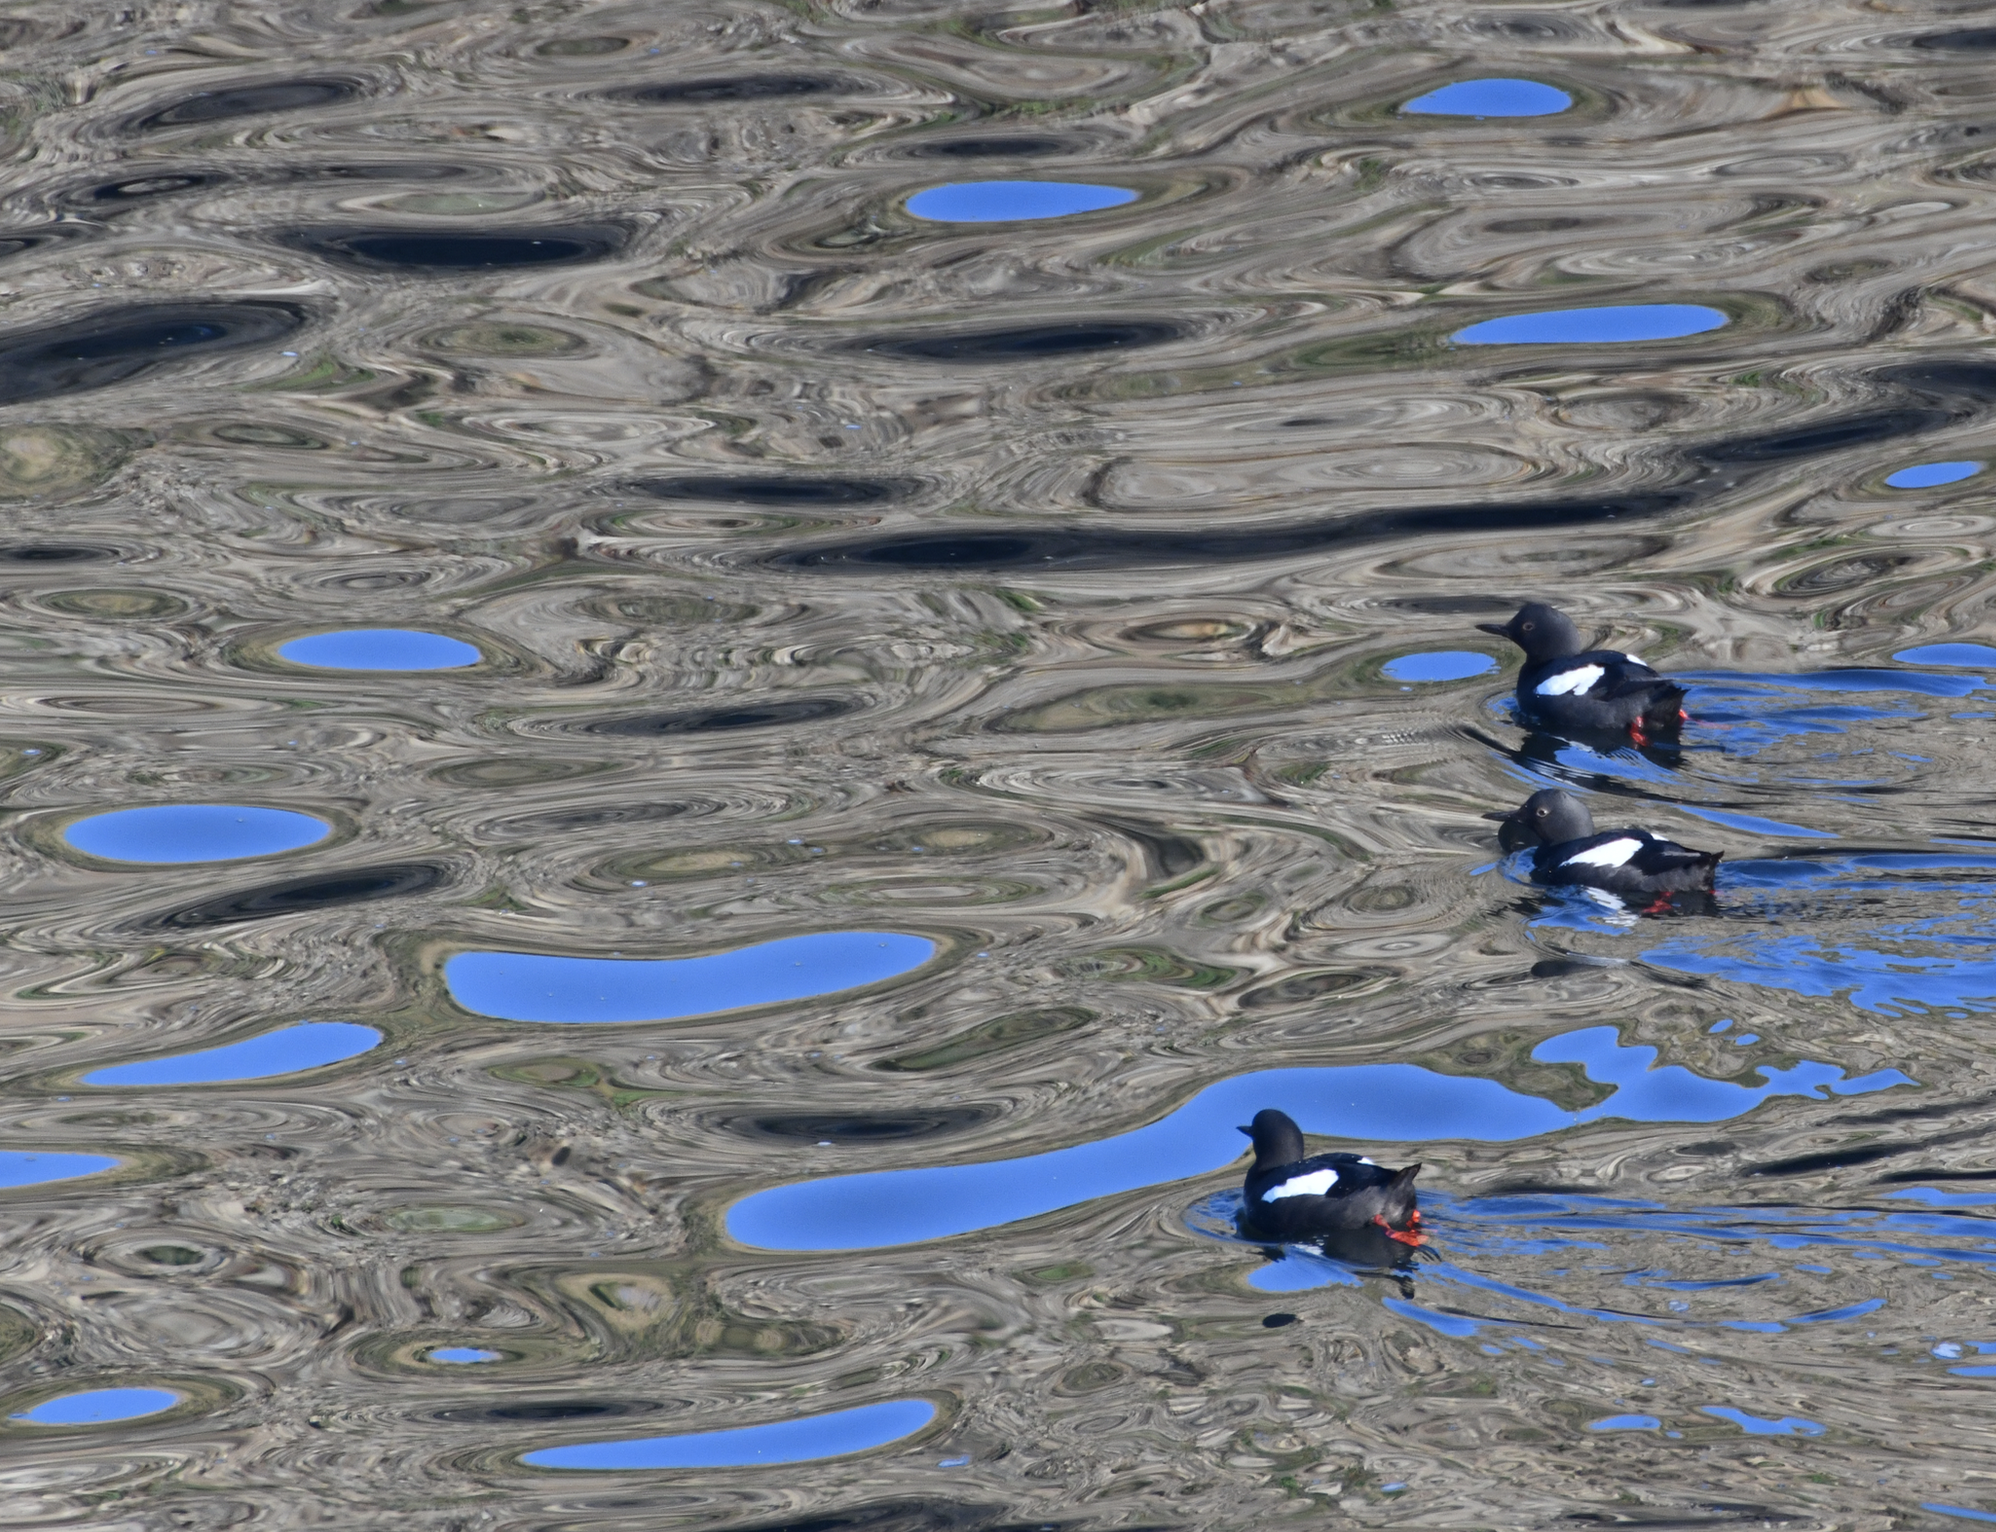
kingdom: Animalia
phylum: Chordata
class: Aves
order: Charadriiformes
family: Alcidae
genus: Cepphus
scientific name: Cepphus columba
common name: Pigeon guillemot
